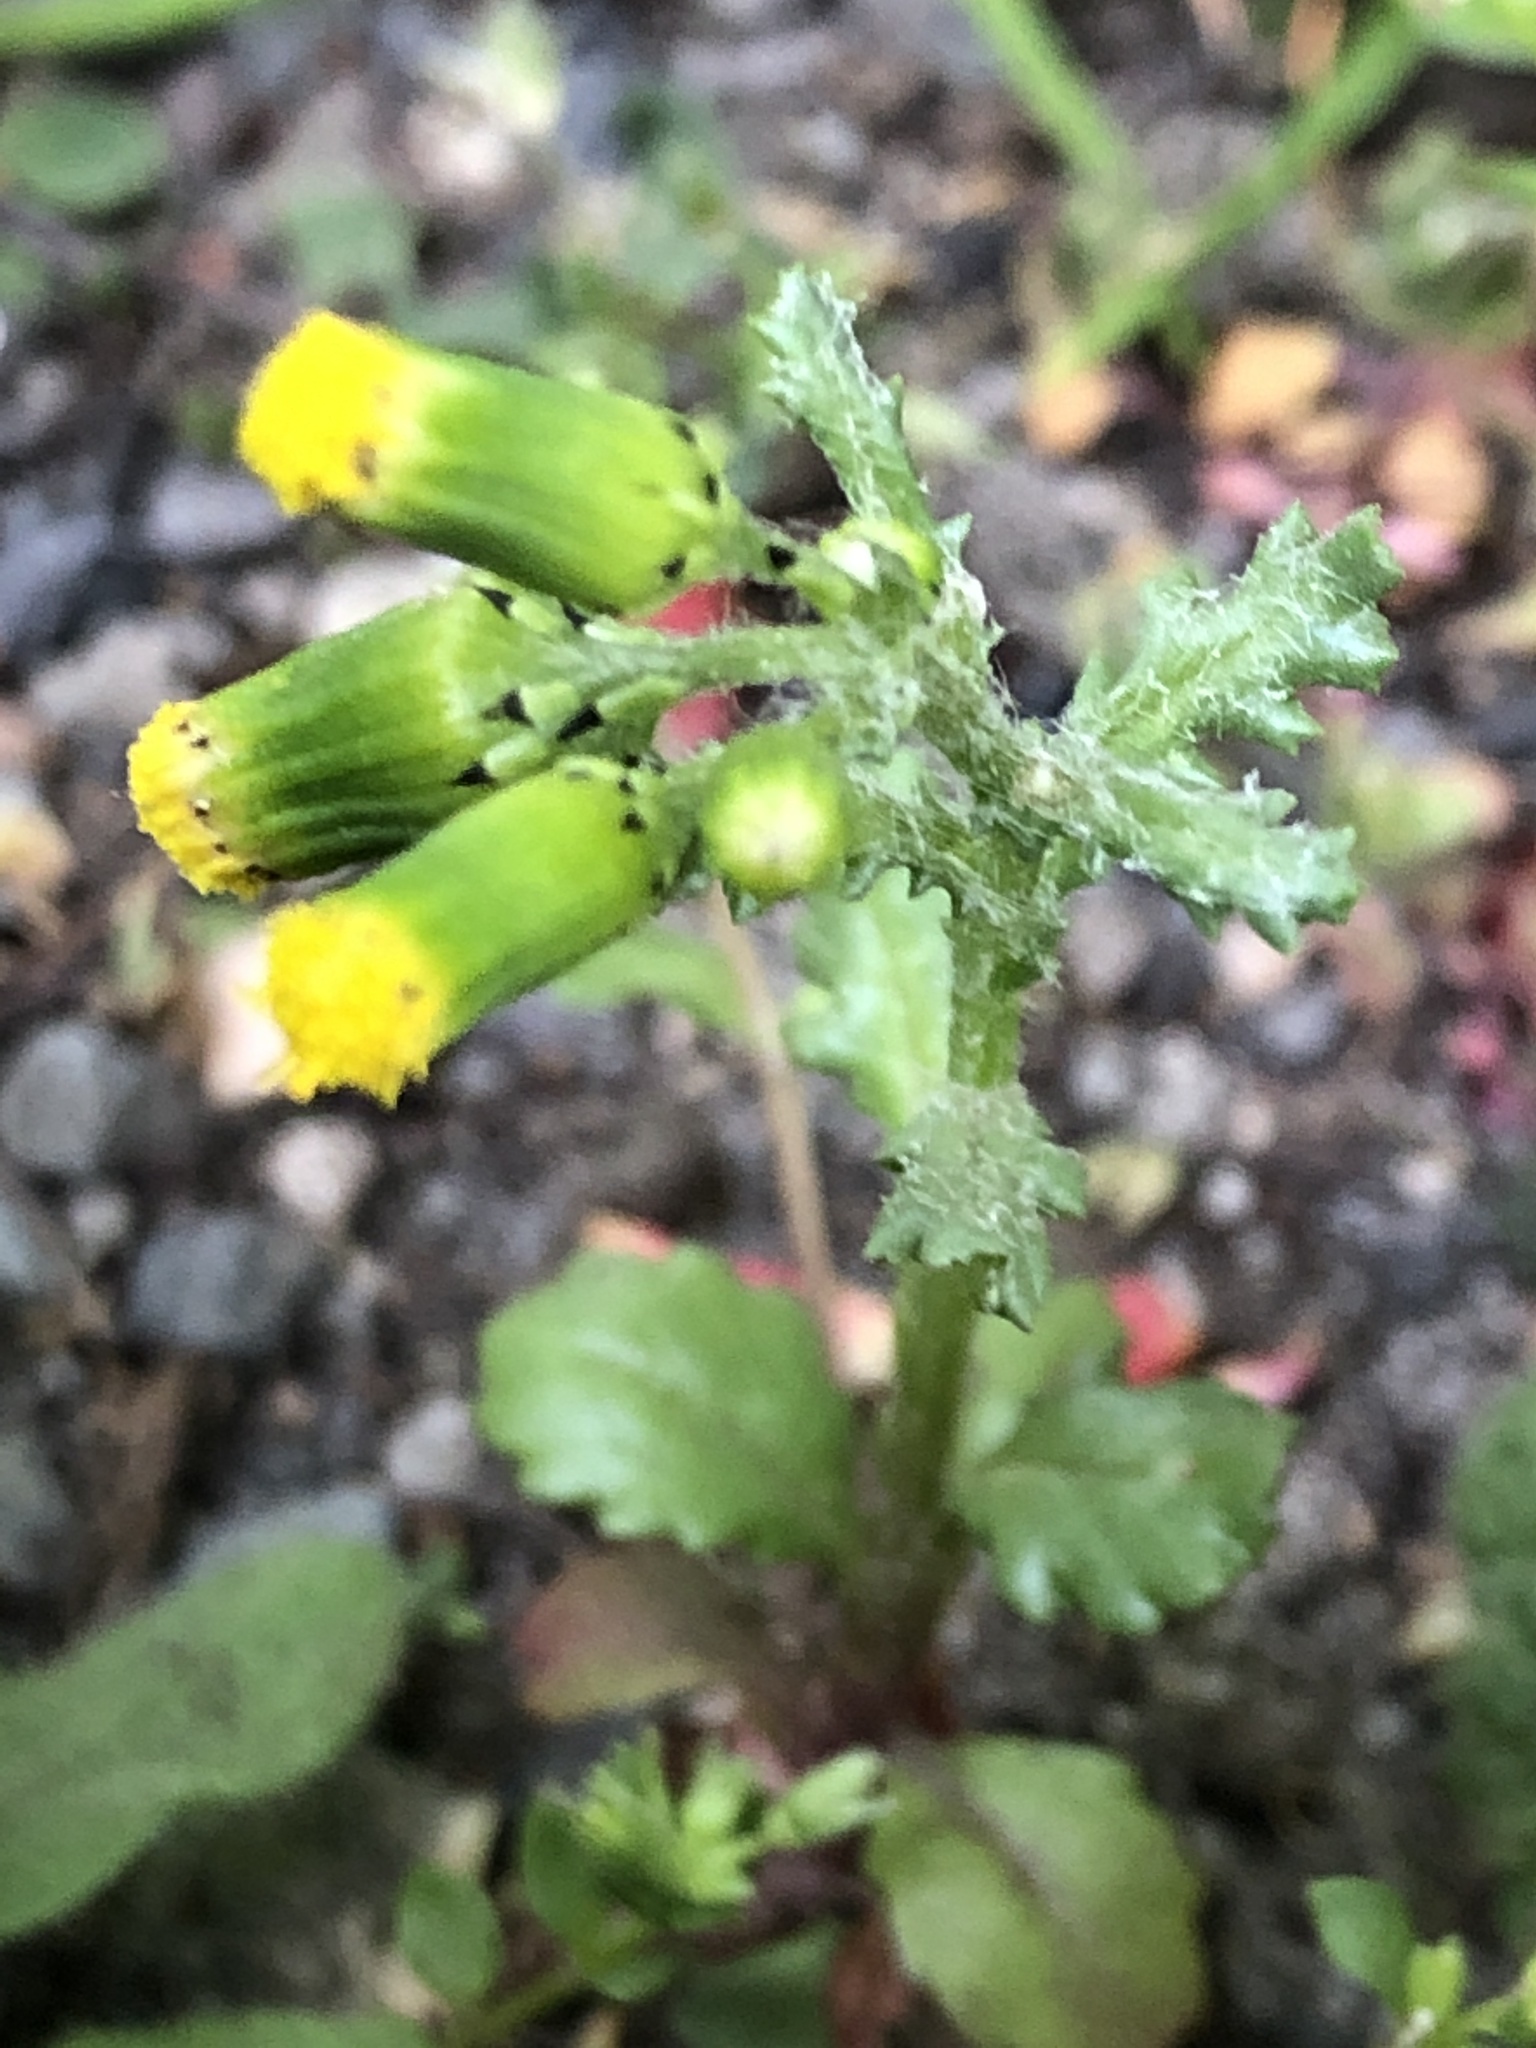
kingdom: Plantae
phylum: Tracheophyta
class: Magnoliopsida
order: Asterales
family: Asteraceae
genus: Senecio
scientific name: Senecio vulgaris
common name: Old-man-in-the-spring
